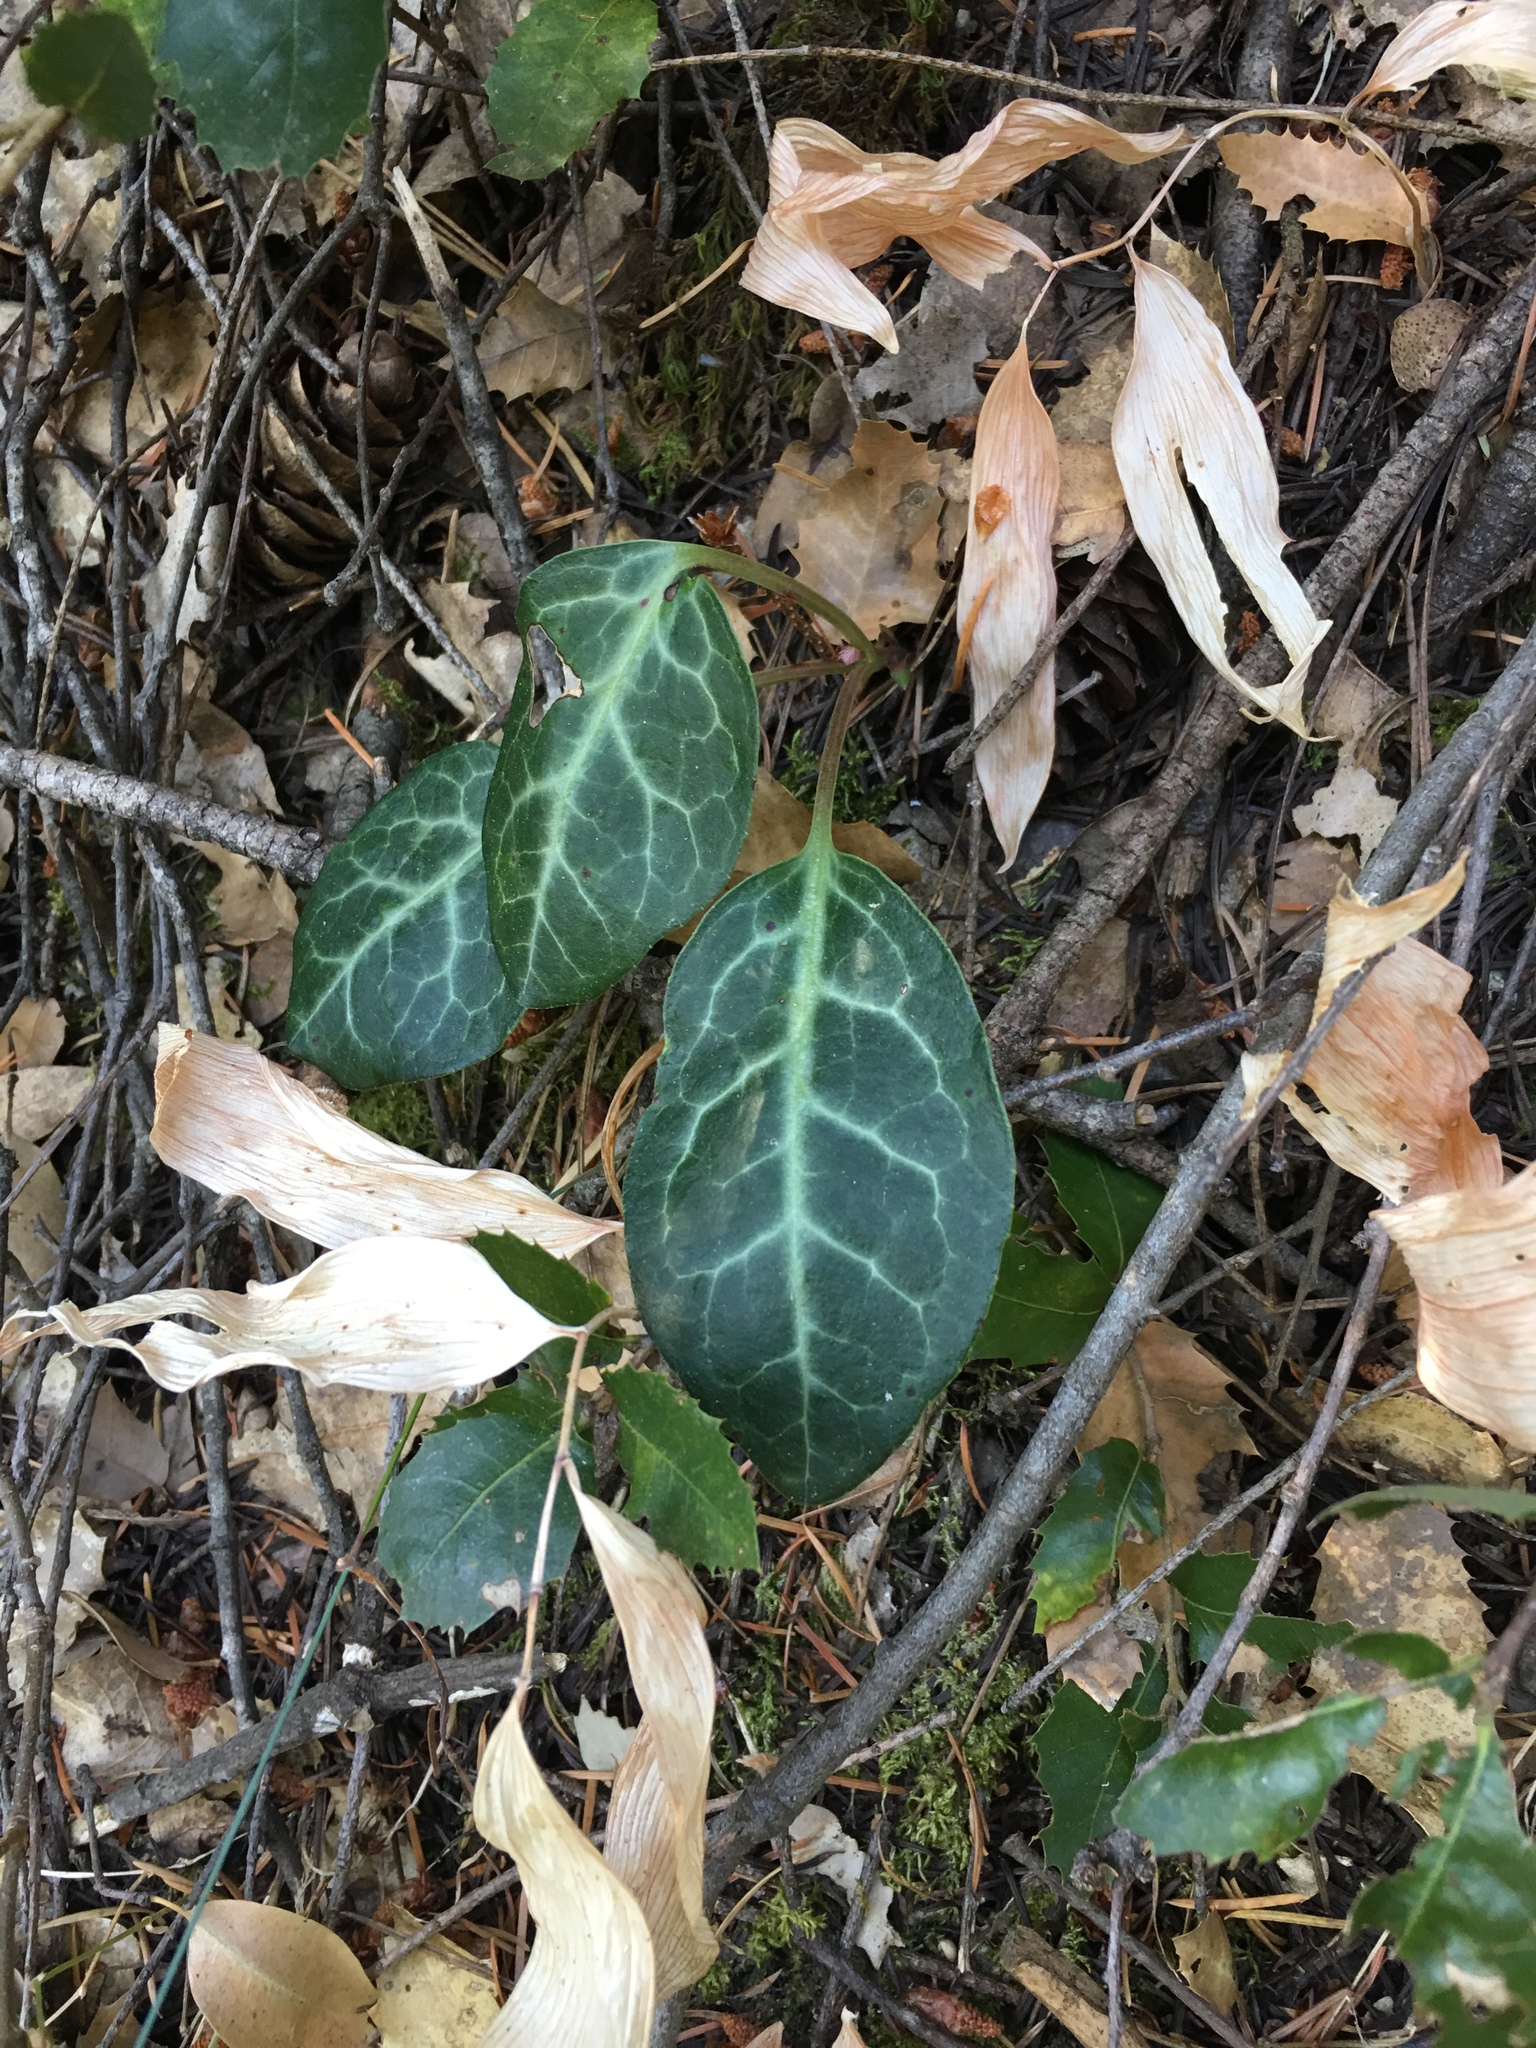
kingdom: Plantae
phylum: Tracheophyta
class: Magnoliopsida
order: Ericales
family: Ericaceae
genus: Pyrola
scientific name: Pyrola picta
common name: White-vein wintergreen
